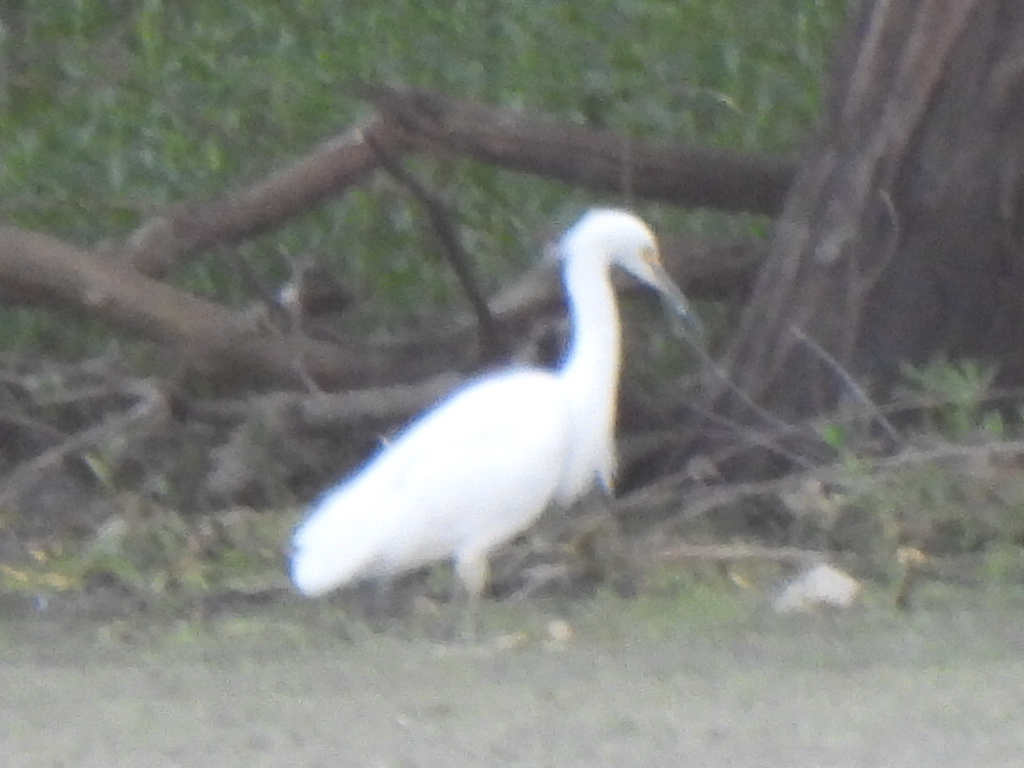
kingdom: Animalia
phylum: Chordata
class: Aves
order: Pelecaniformes
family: Ardeidae
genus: Egretta
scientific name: Egretta thula
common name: Snowy egret
